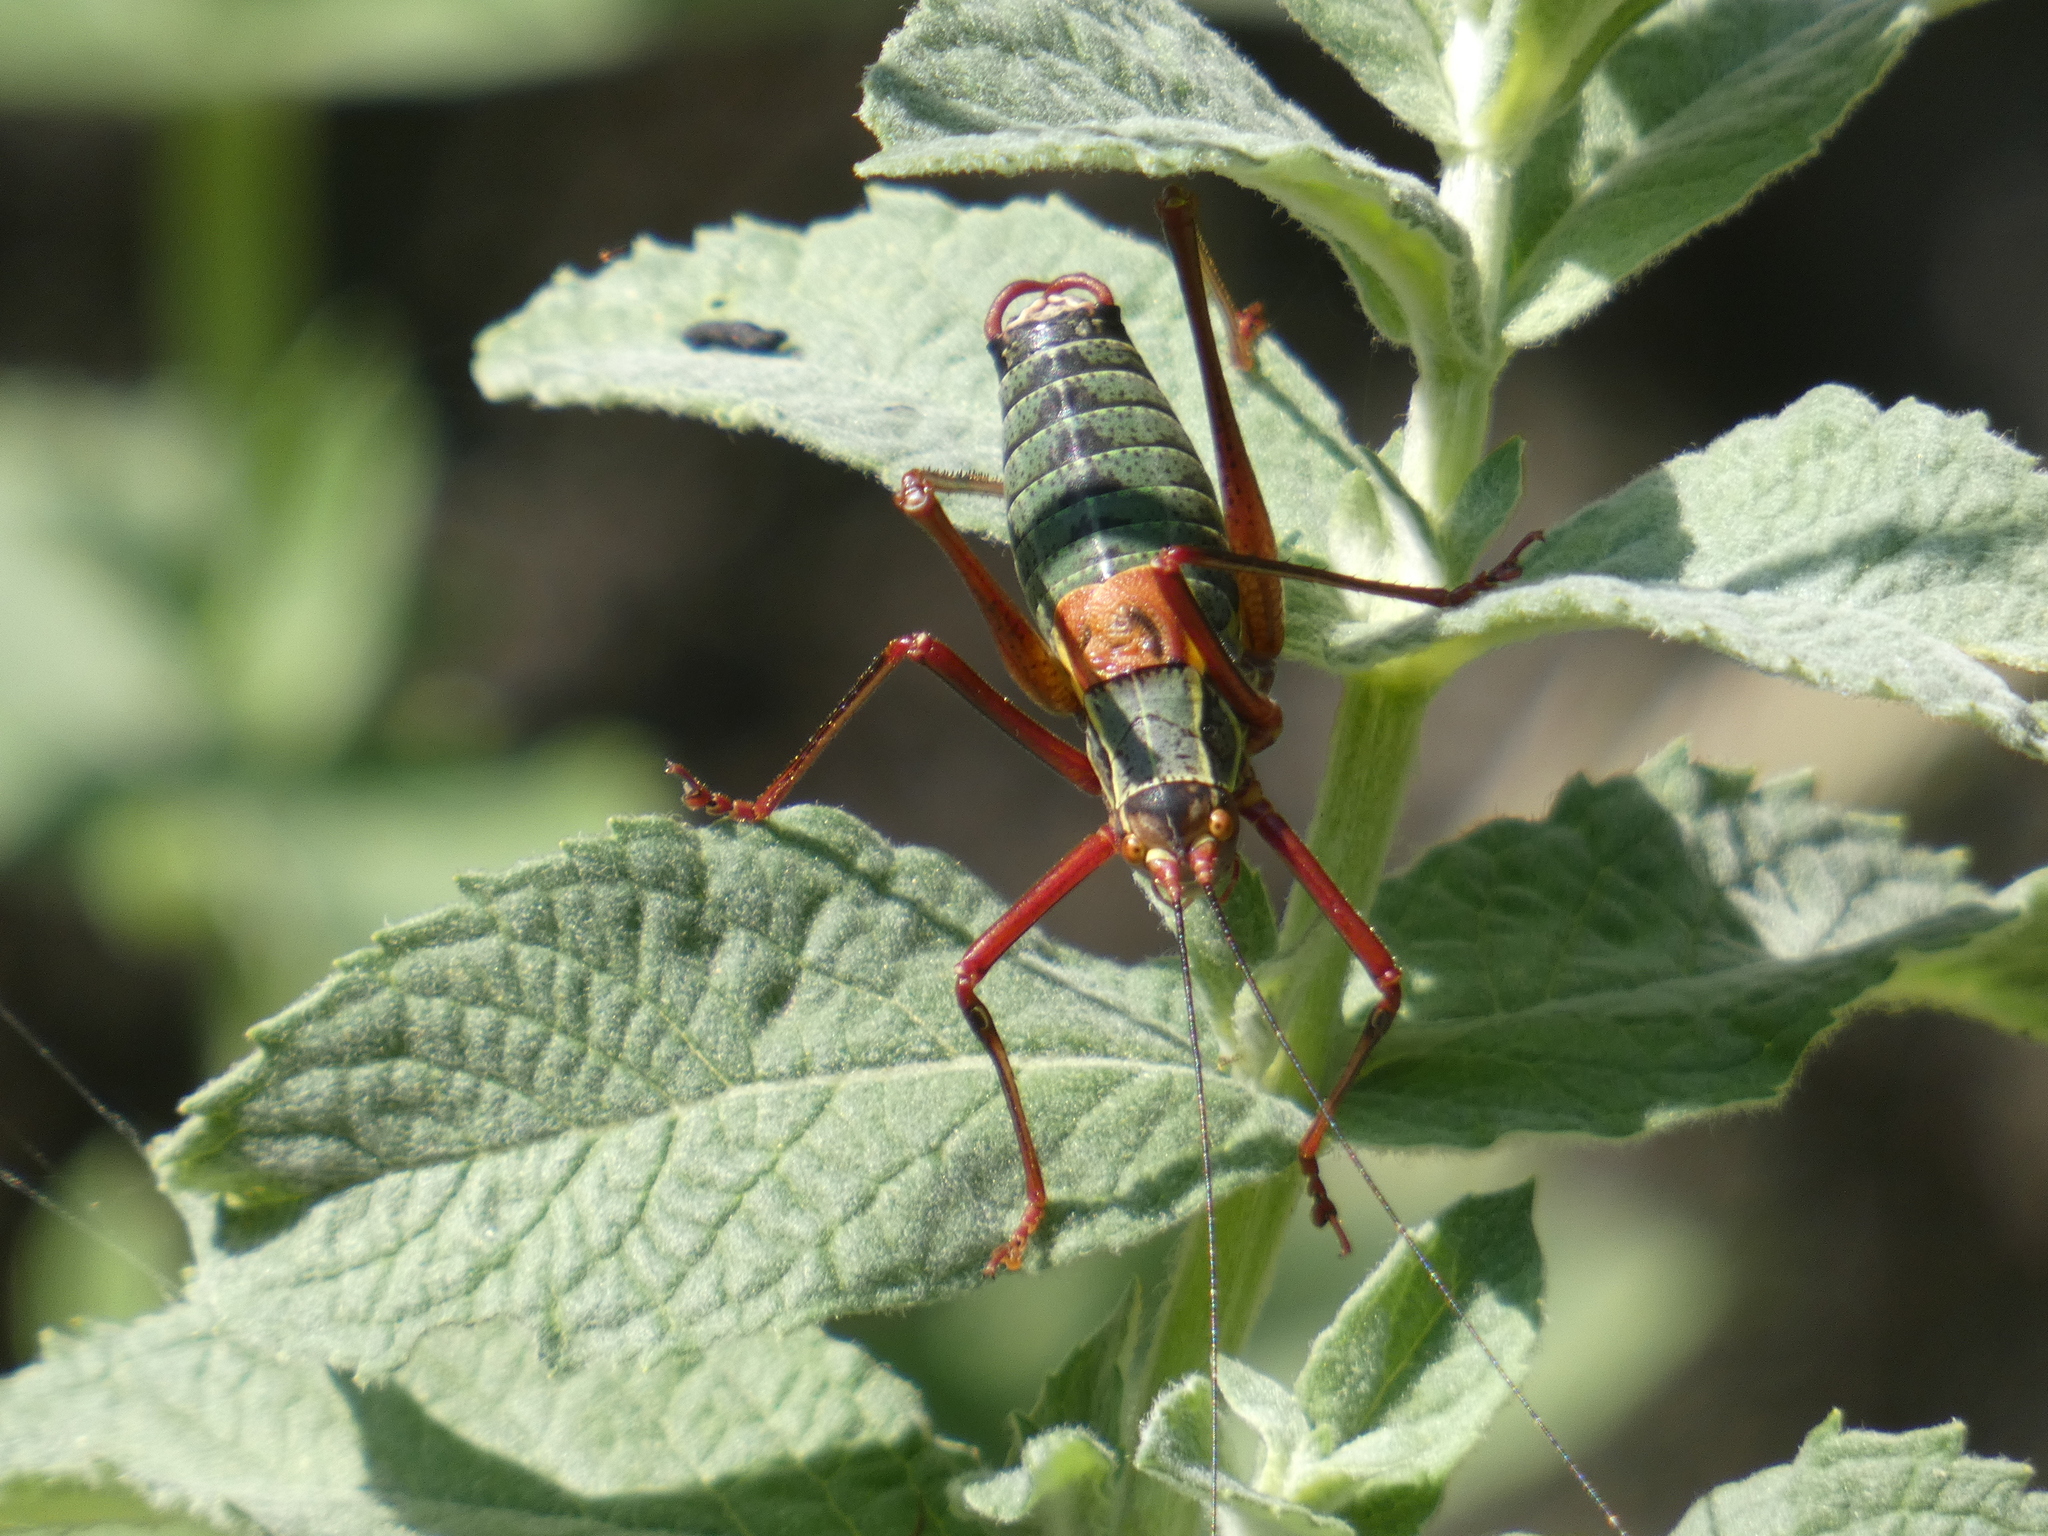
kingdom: Animalia
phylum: Arthropoda
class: Insecta
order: Orthoptera
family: Tettigoniidae
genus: Barbitistes
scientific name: Barbitistes obtusus
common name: Alpine saw bush-cricket
